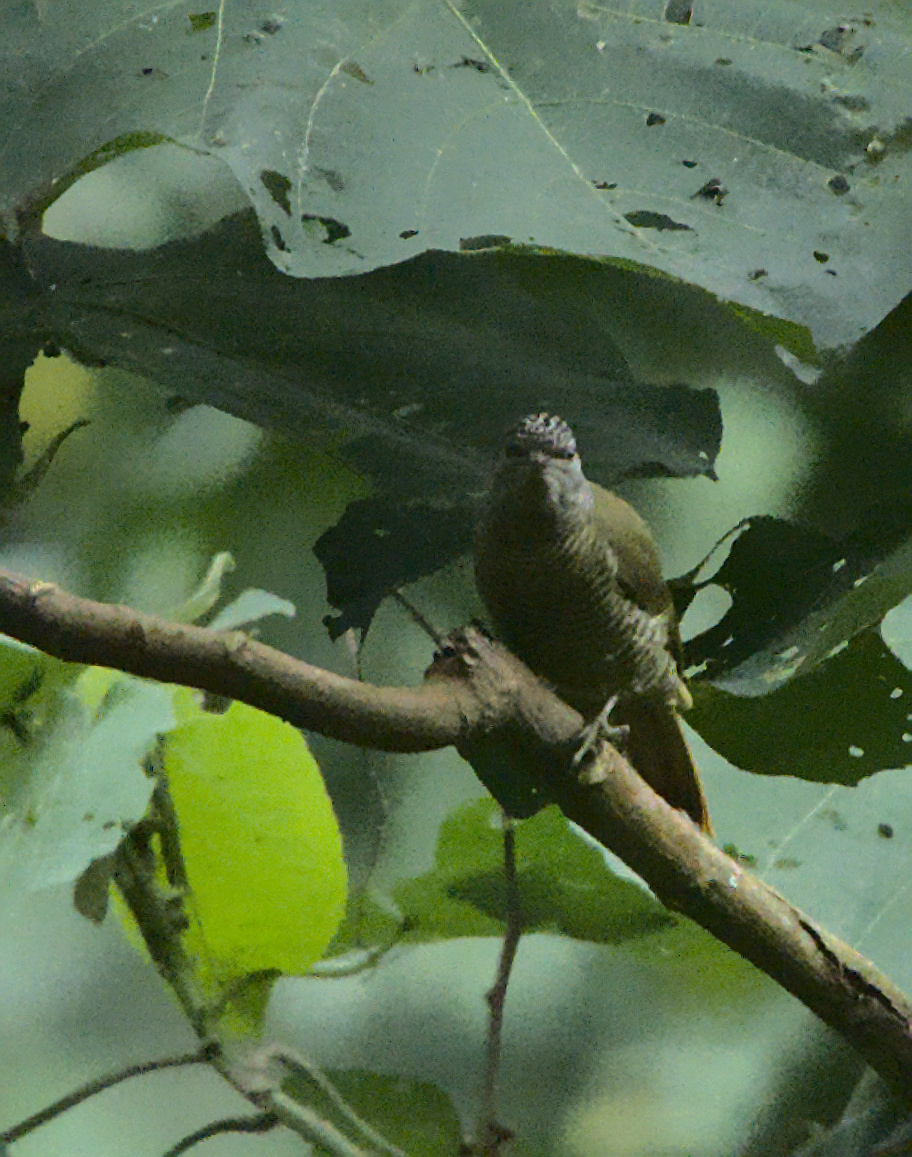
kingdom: Animalia
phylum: Chordata
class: Aves
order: Piciformes
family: Picidae
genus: Campethera
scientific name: Campethera taeniolaema
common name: Fine-banded woodpecker
